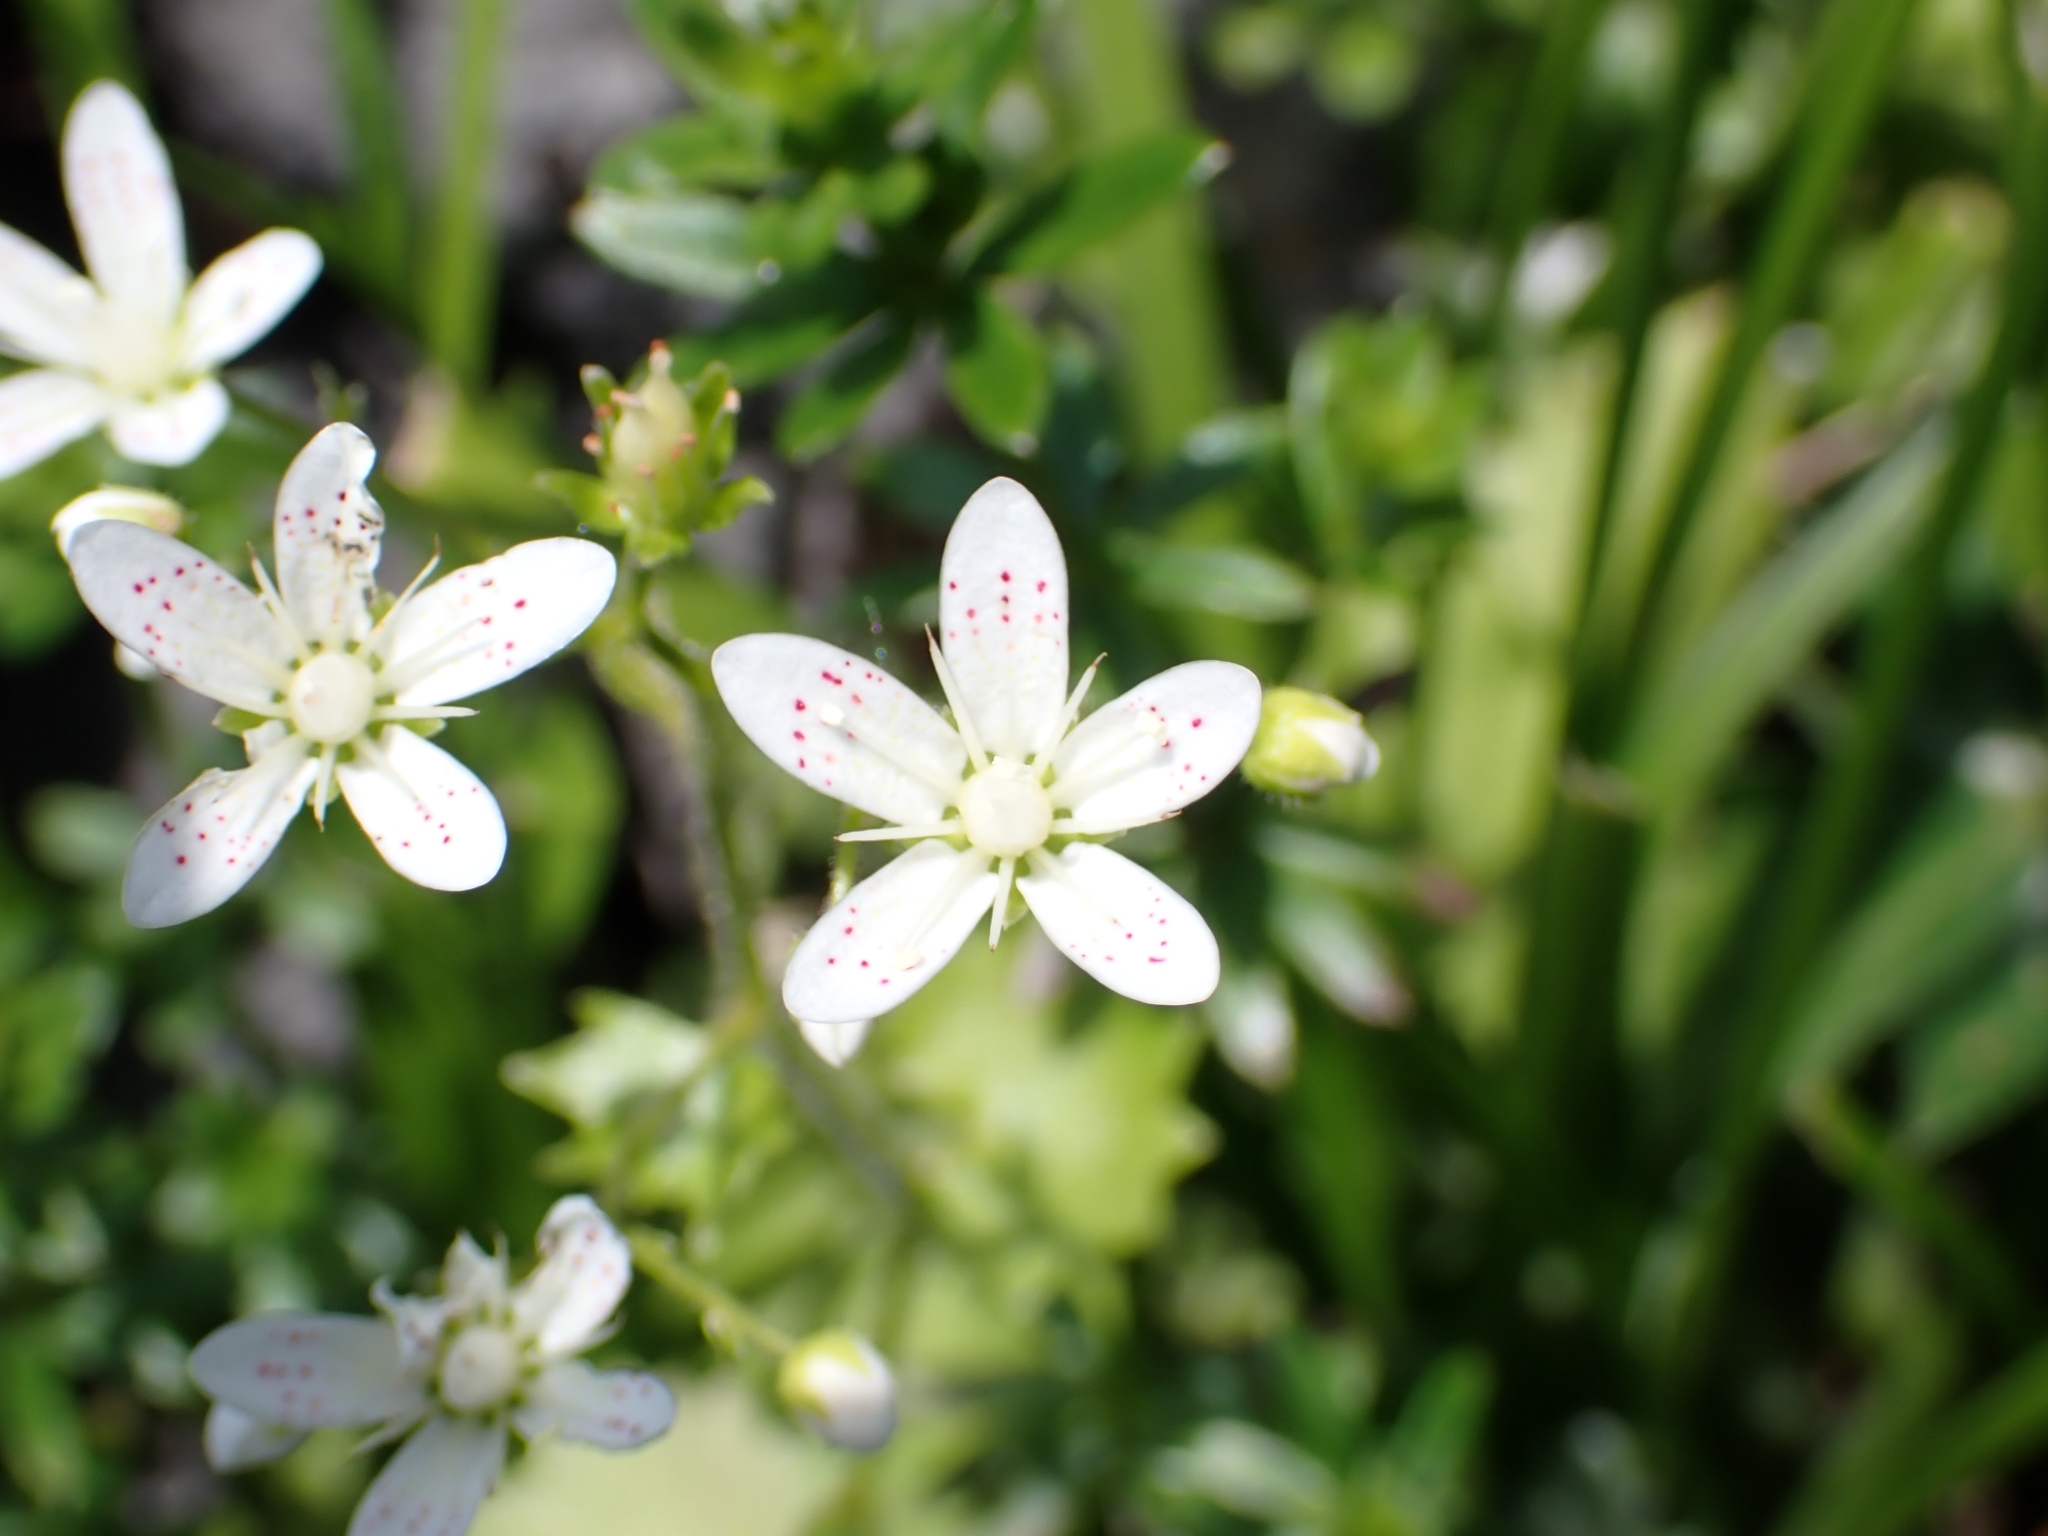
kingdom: Plantae
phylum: Tracheophyta
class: Magnoliopsida
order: Saxifragales
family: Saxifragaceae
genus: Saxifraga
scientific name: Saxifraga rotundifolia
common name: Round-leaved saxifrage
